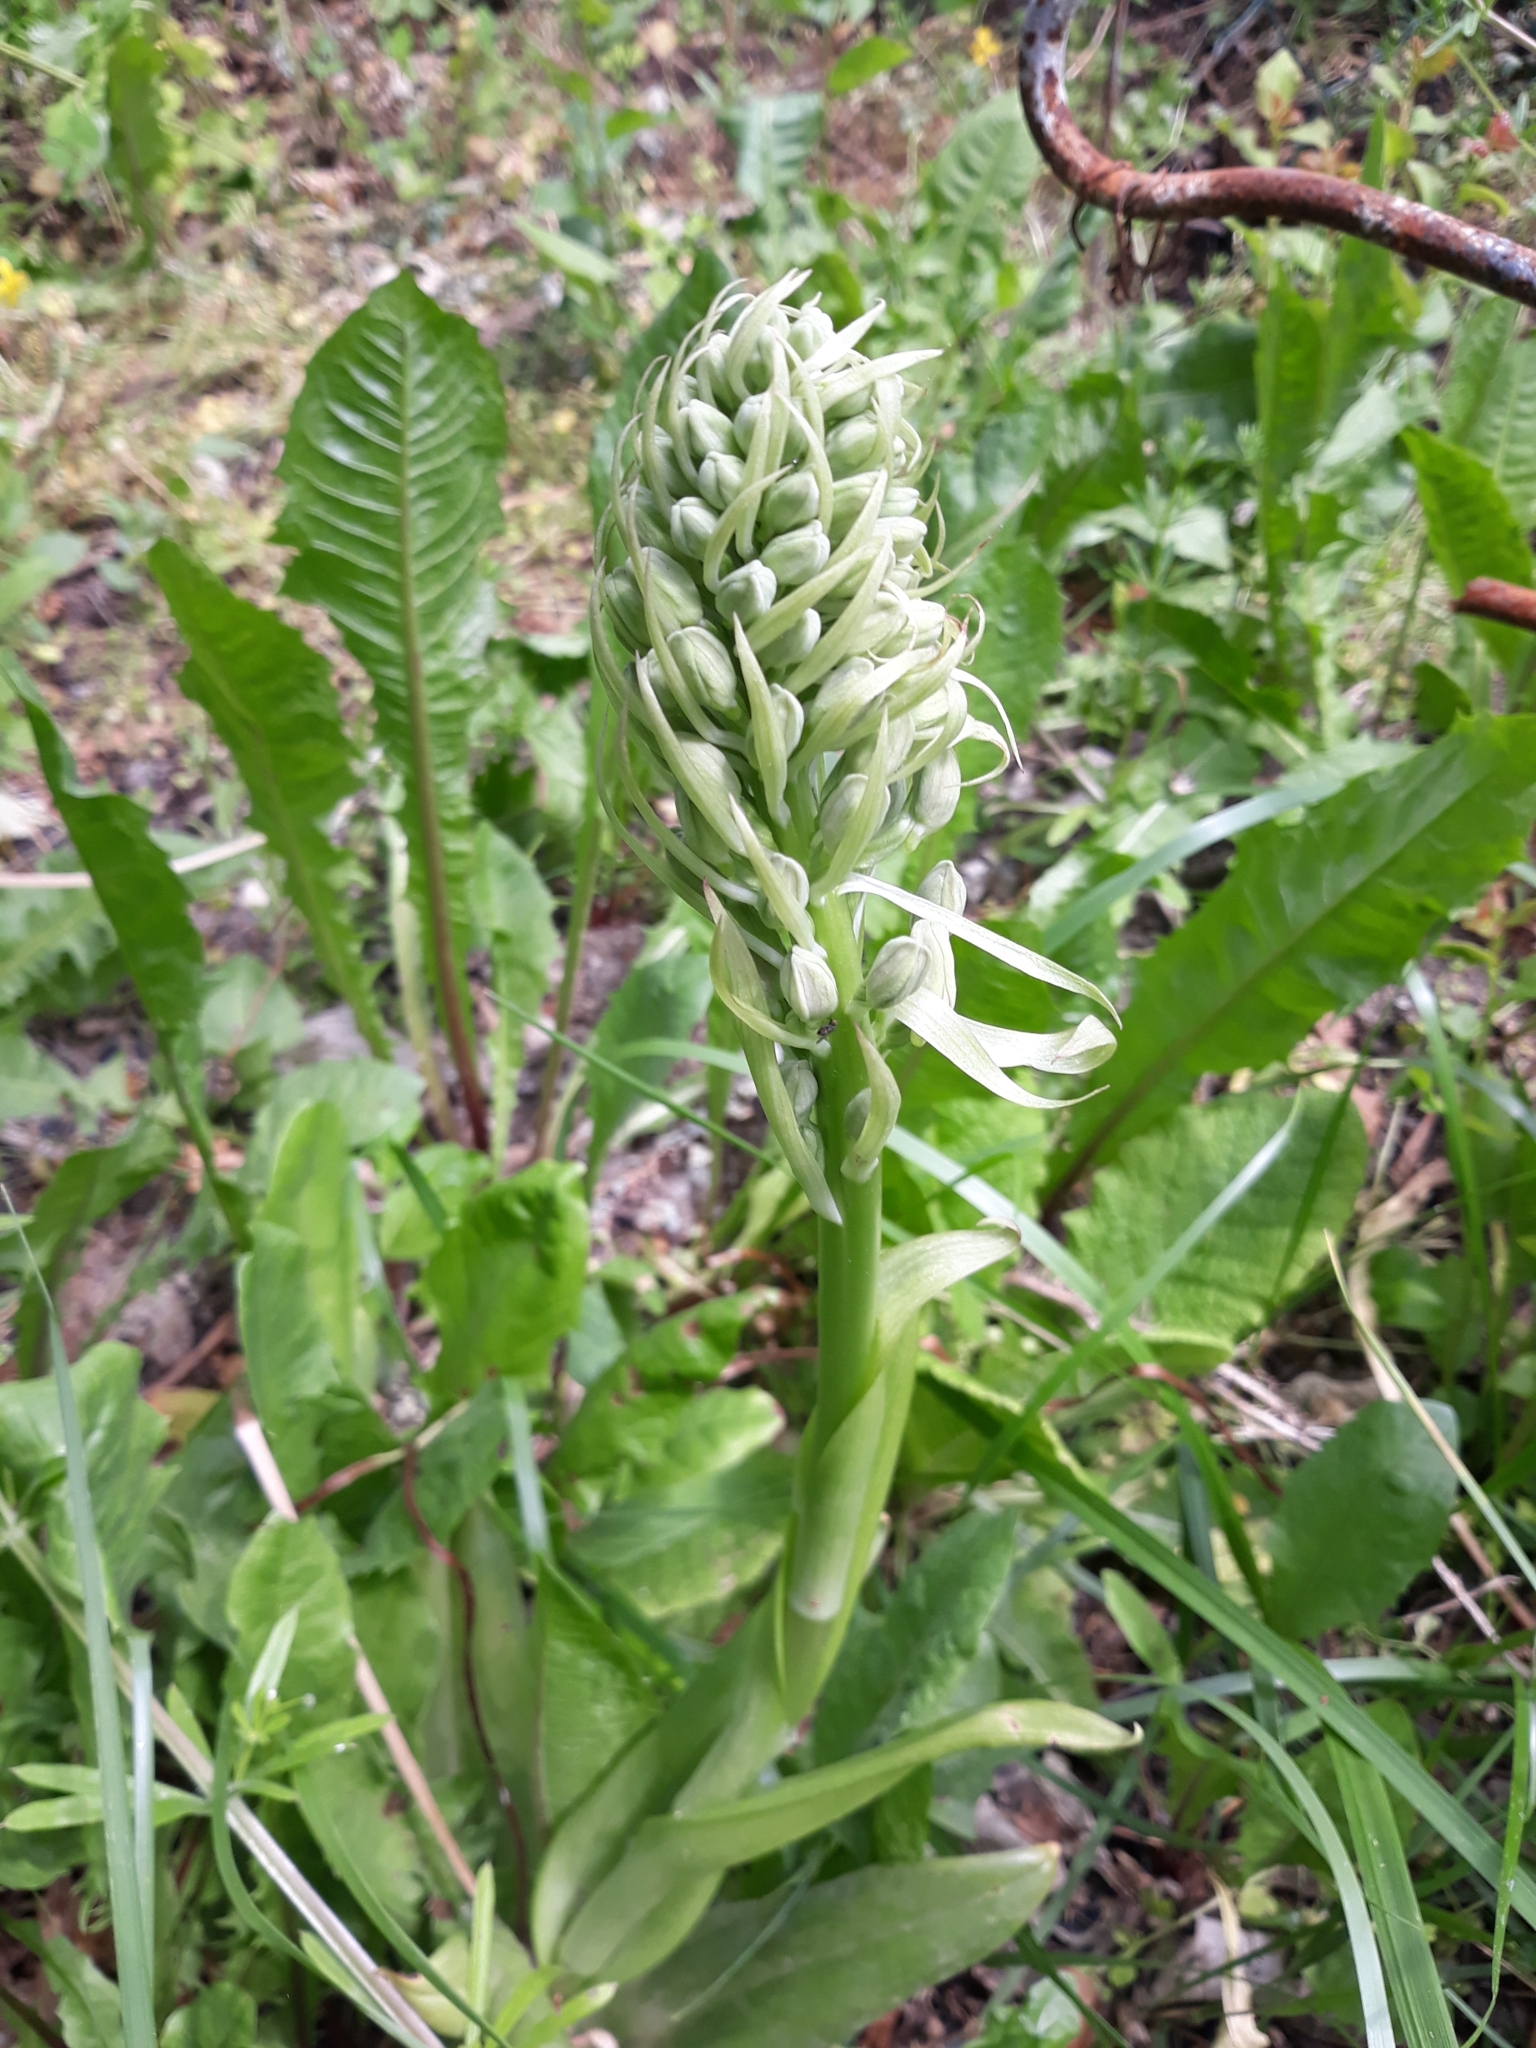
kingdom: Plantae
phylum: Tracheophyta
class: Liliopsida
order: Asparagales
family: Orchidaceae
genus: Himantoglossum
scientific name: Himantoglossum hircinum
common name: Lizard orchid
